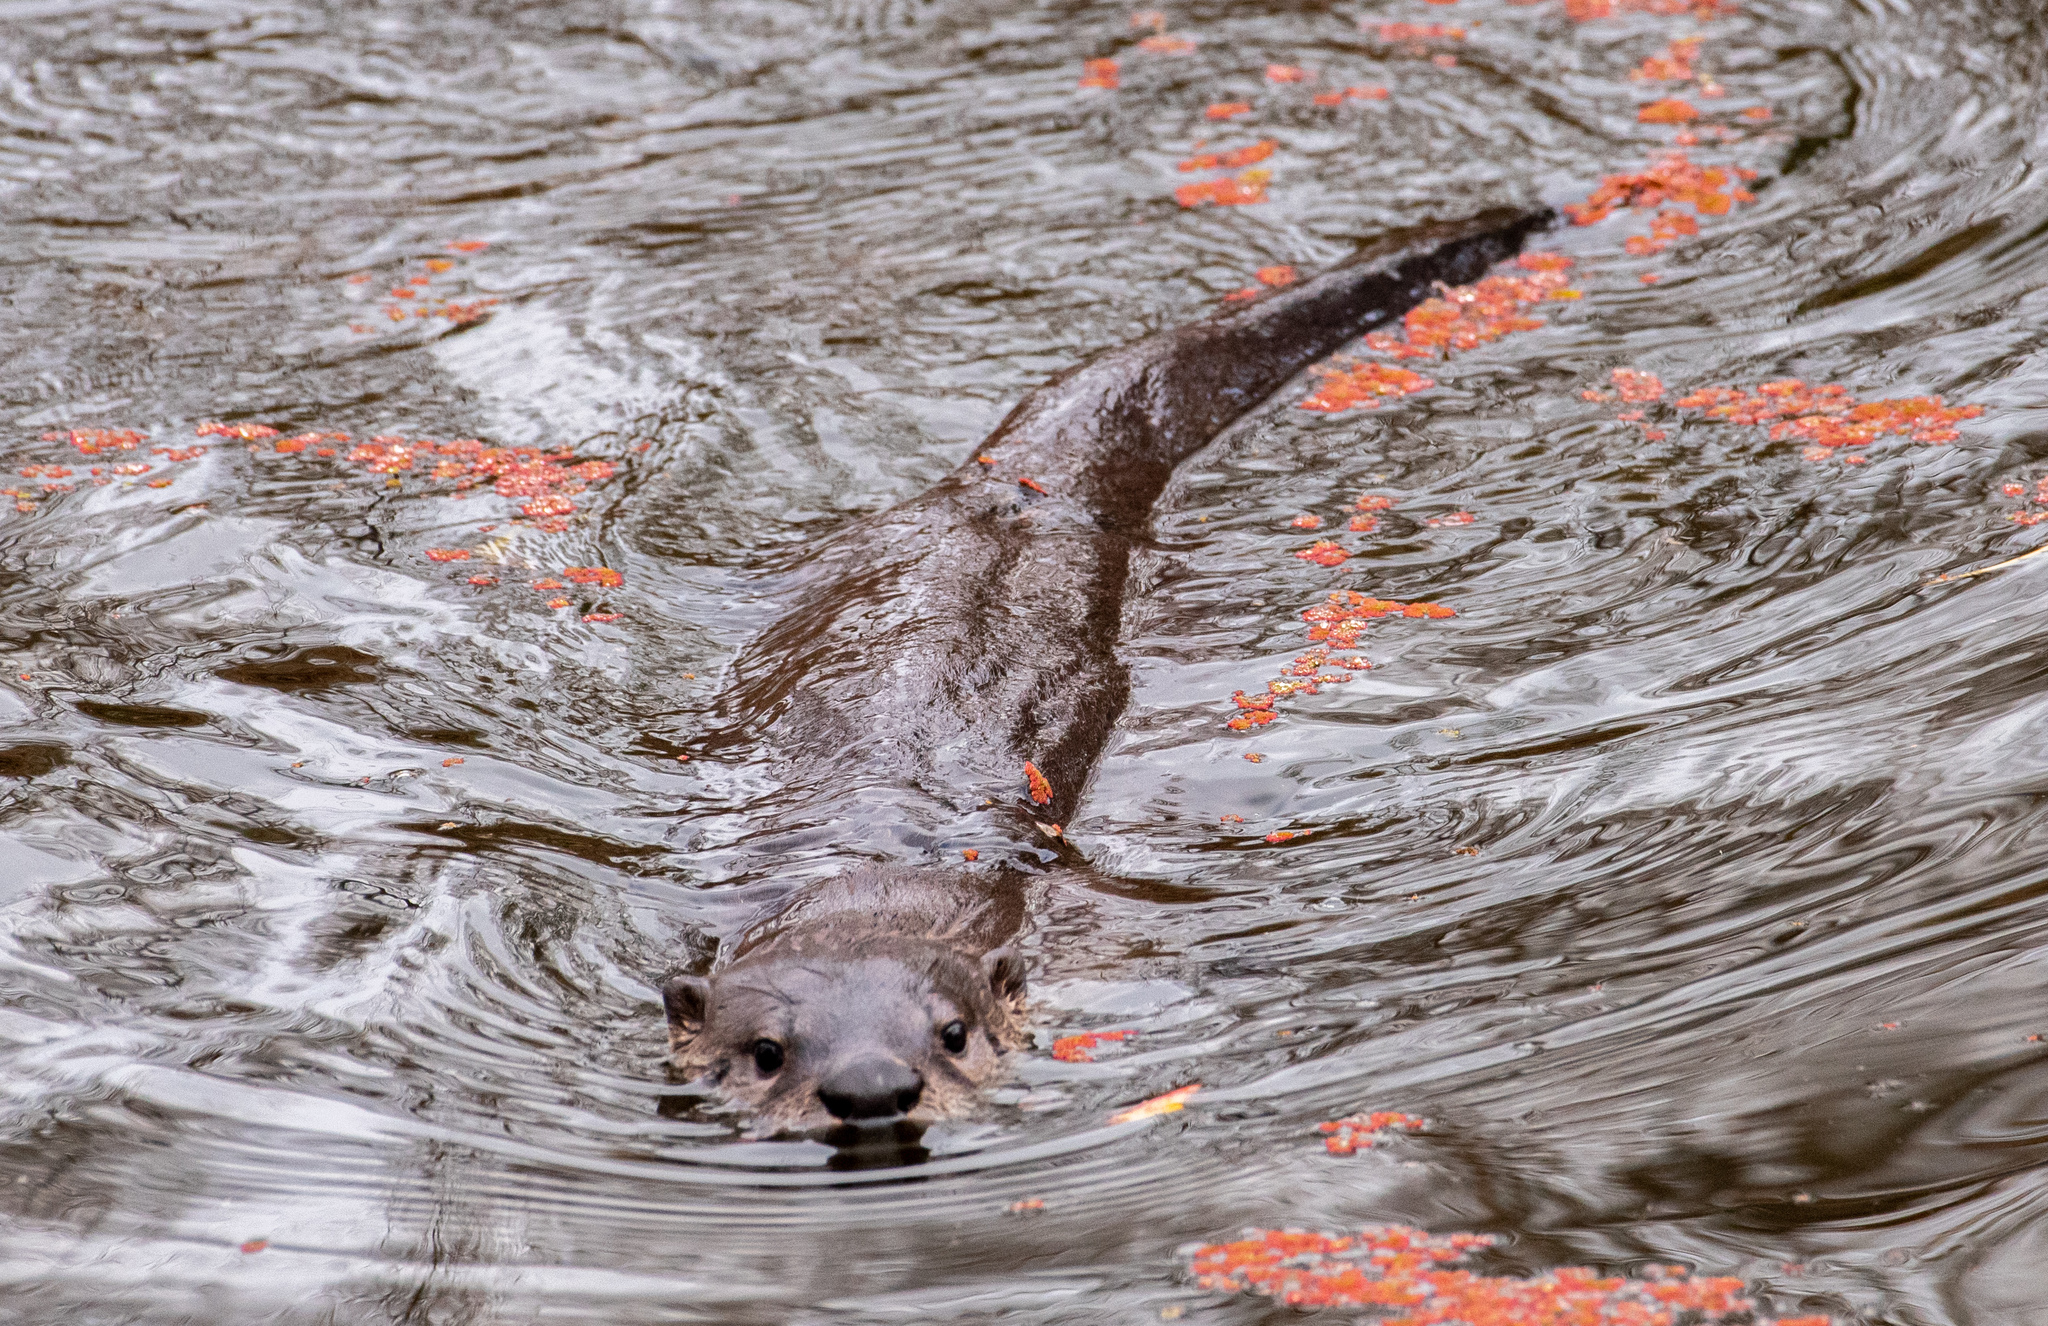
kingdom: Animalia
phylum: Chordata
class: Mammalia
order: Carnivora
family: Mustelidae
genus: Lontra
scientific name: Lontra canadensis
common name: North american river otter
